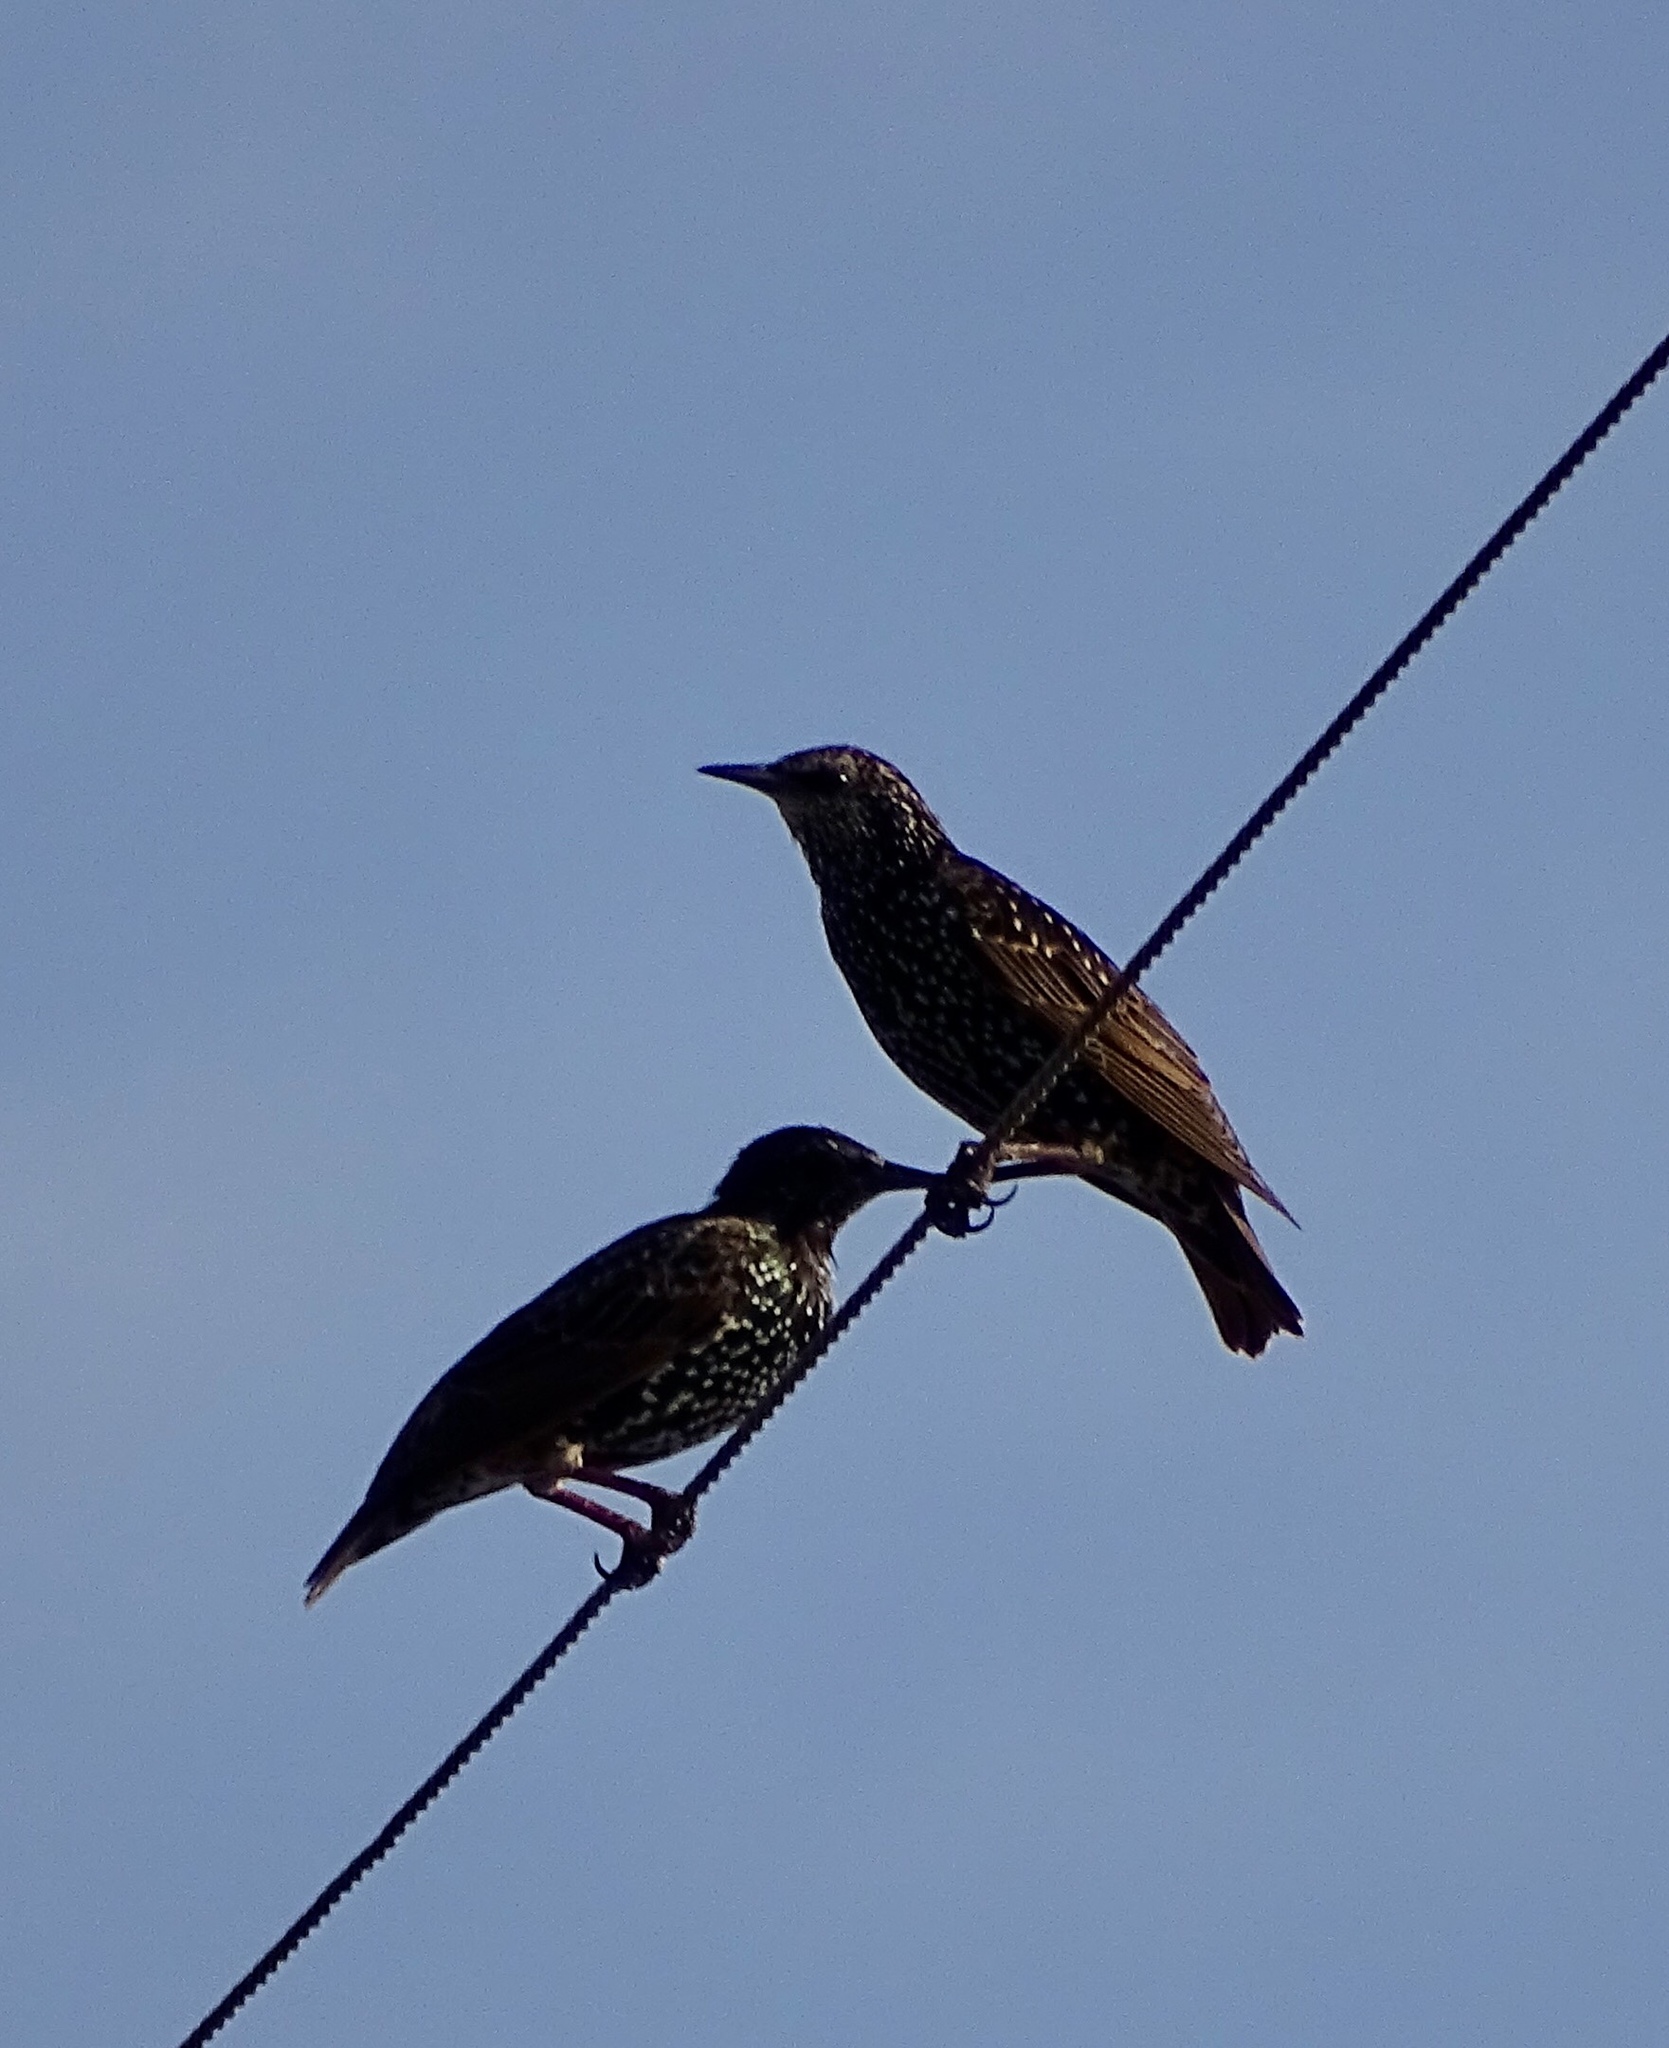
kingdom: Animalia
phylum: Chordata
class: Aves
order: Passeriformes
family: Sturnidae
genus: Sturnus
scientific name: Sturnus vulgaris
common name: Common starling
